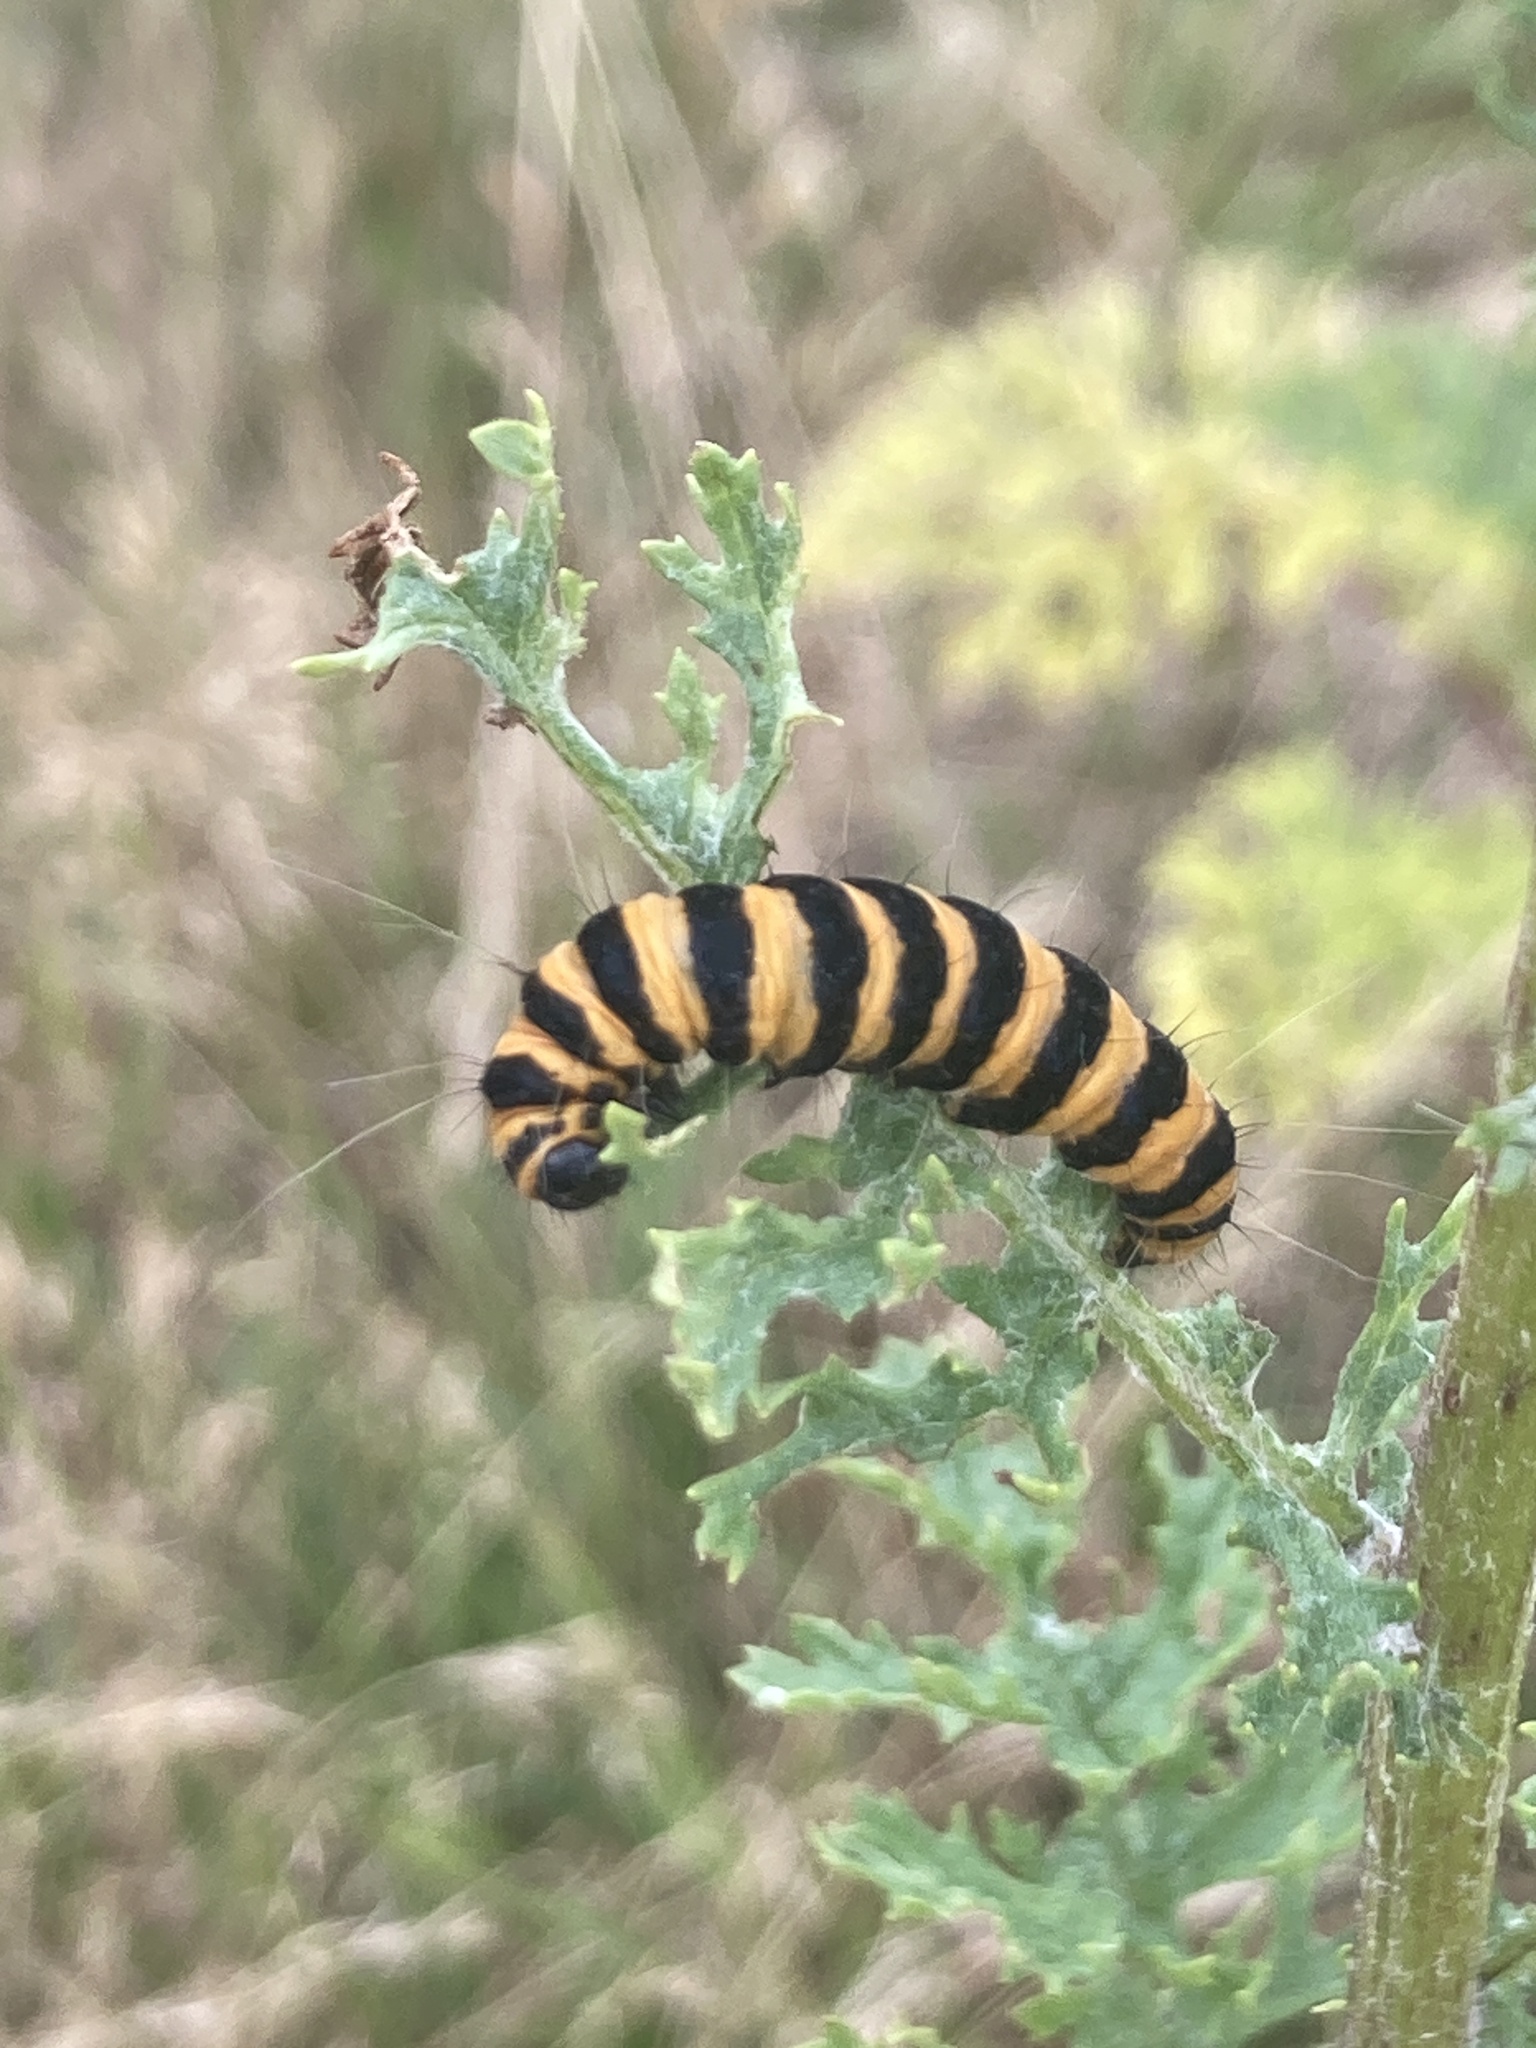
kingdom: Animalia
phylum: Arthropoda
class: Insecta
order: Lepidoptera
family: Erebidae
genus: Tyria
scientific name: Tyria jacobaeae
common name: Cinnabar
